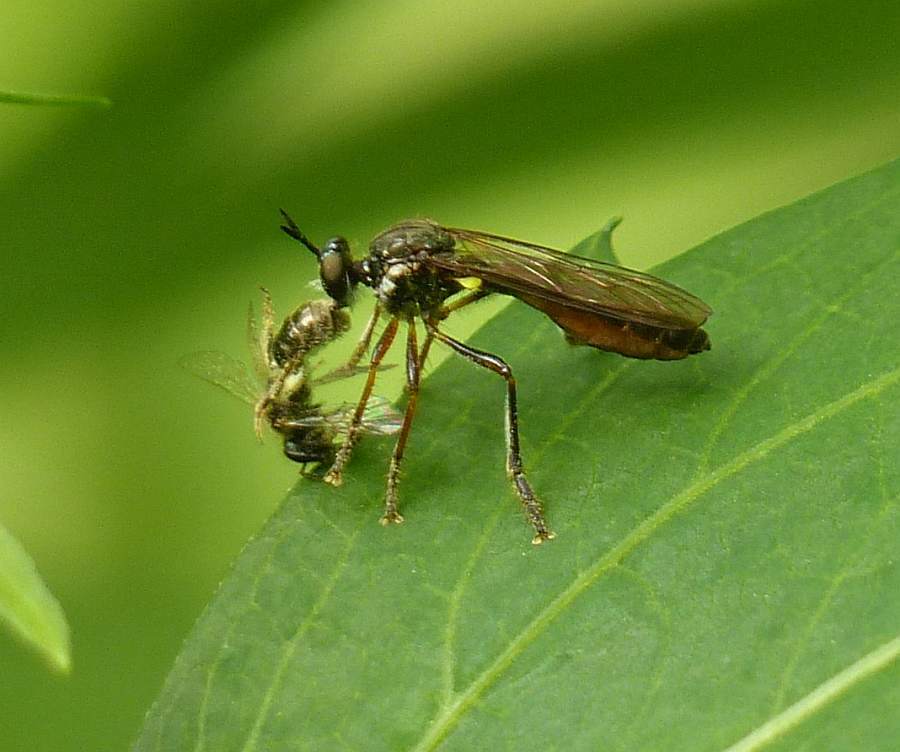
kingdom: Animalia
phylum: Arthropoda
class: Insecta
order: Diptera
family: Asilidae
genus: Dioctria
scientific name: Dioctria hyalipennis
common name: Stripe-legged robberfly
